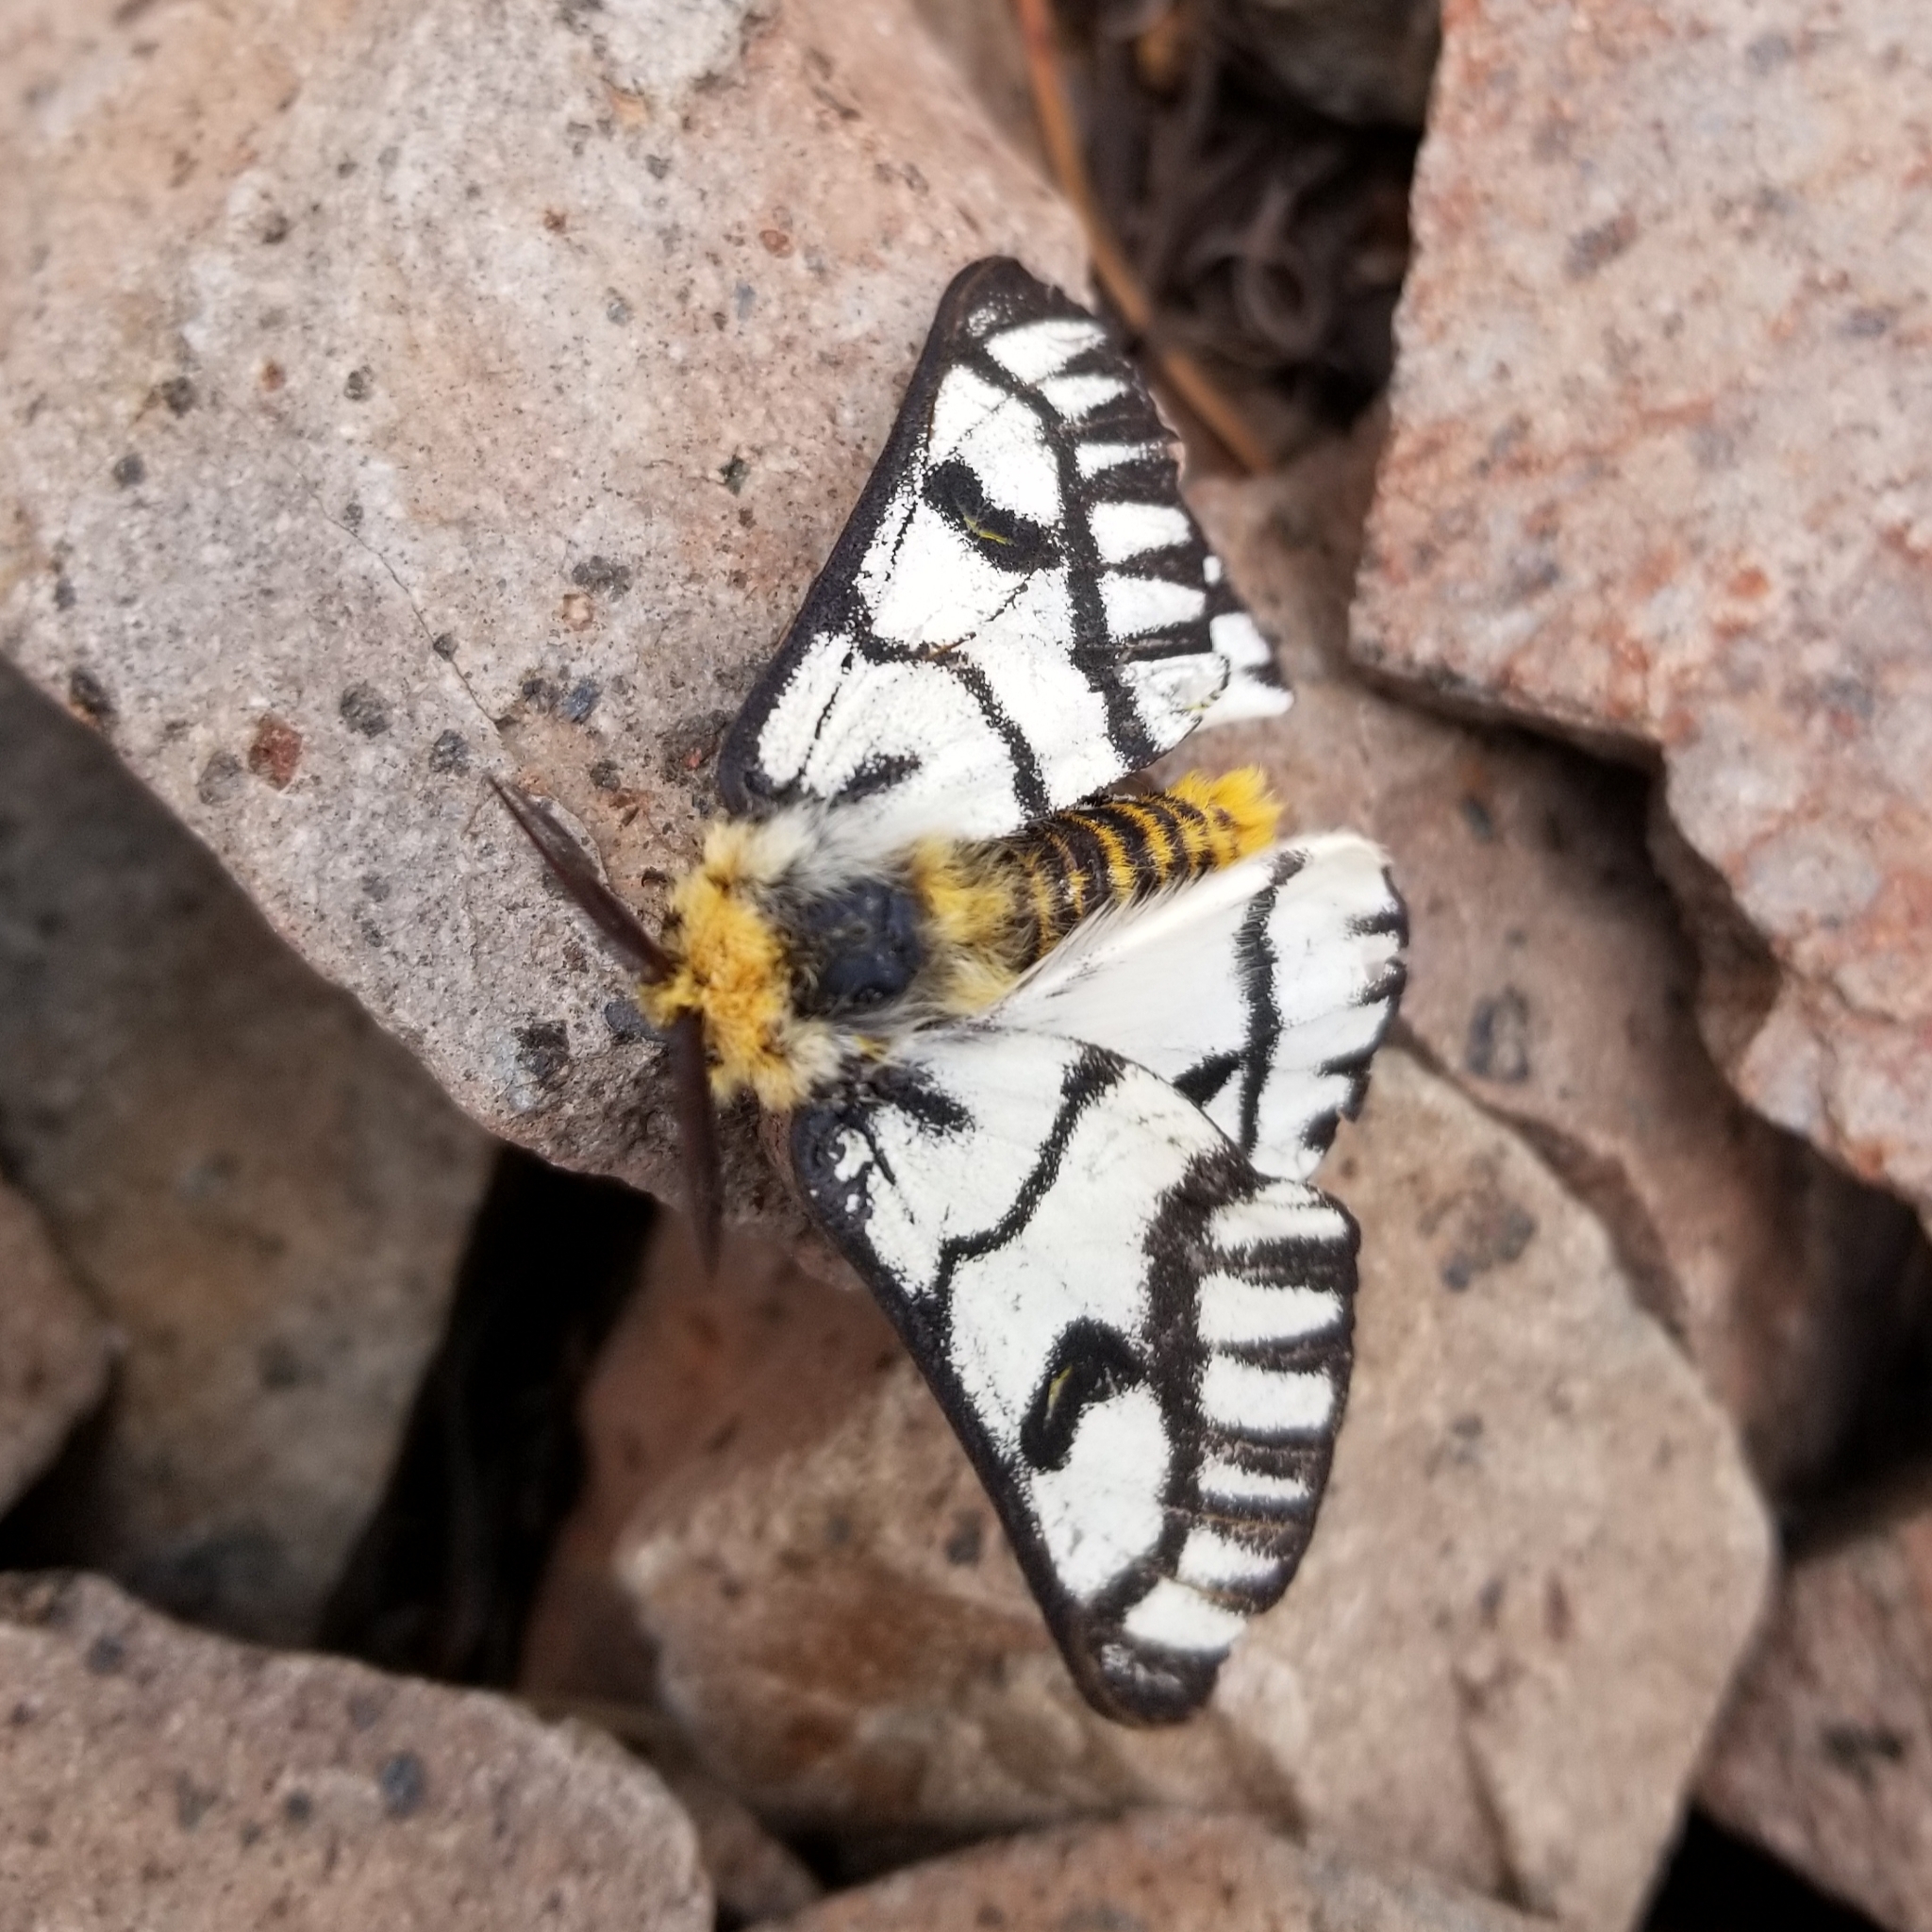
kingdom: Animalia
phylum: Arthropoda
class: Insecta
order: Lepidoptera
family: Saturniidae
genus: Hemileuca
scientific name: Hemileuca hera
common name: Hera sheepmoth
